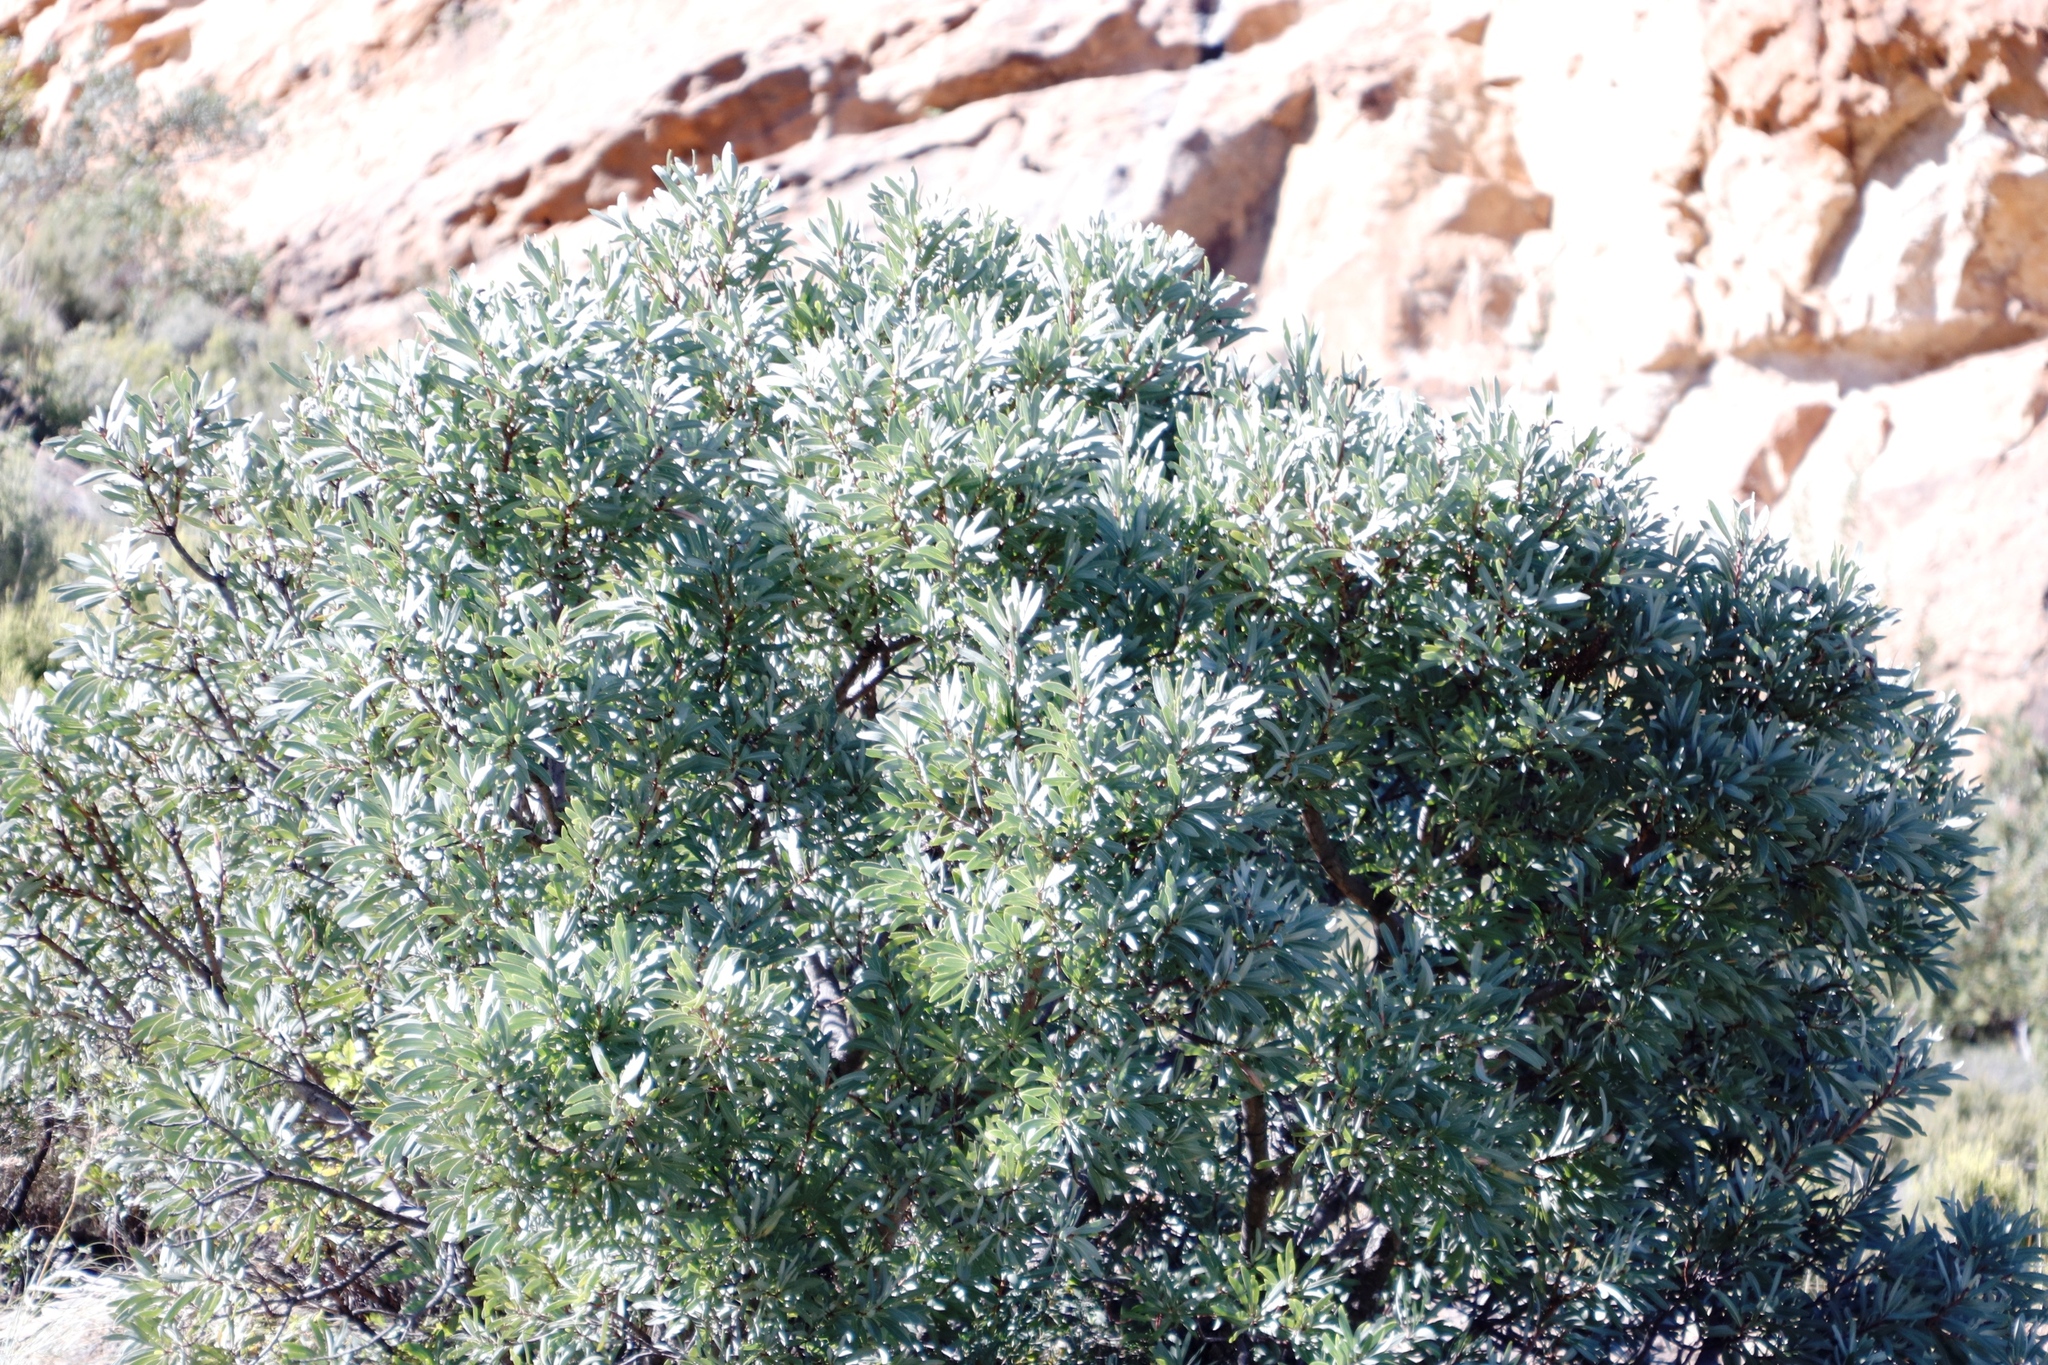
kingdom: Plantae
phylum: Tracheophyta
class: Magnoliopsida
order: Proteales
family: Proteaceae
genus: Protea
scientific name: Protea caffra
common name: Common sugarbush
